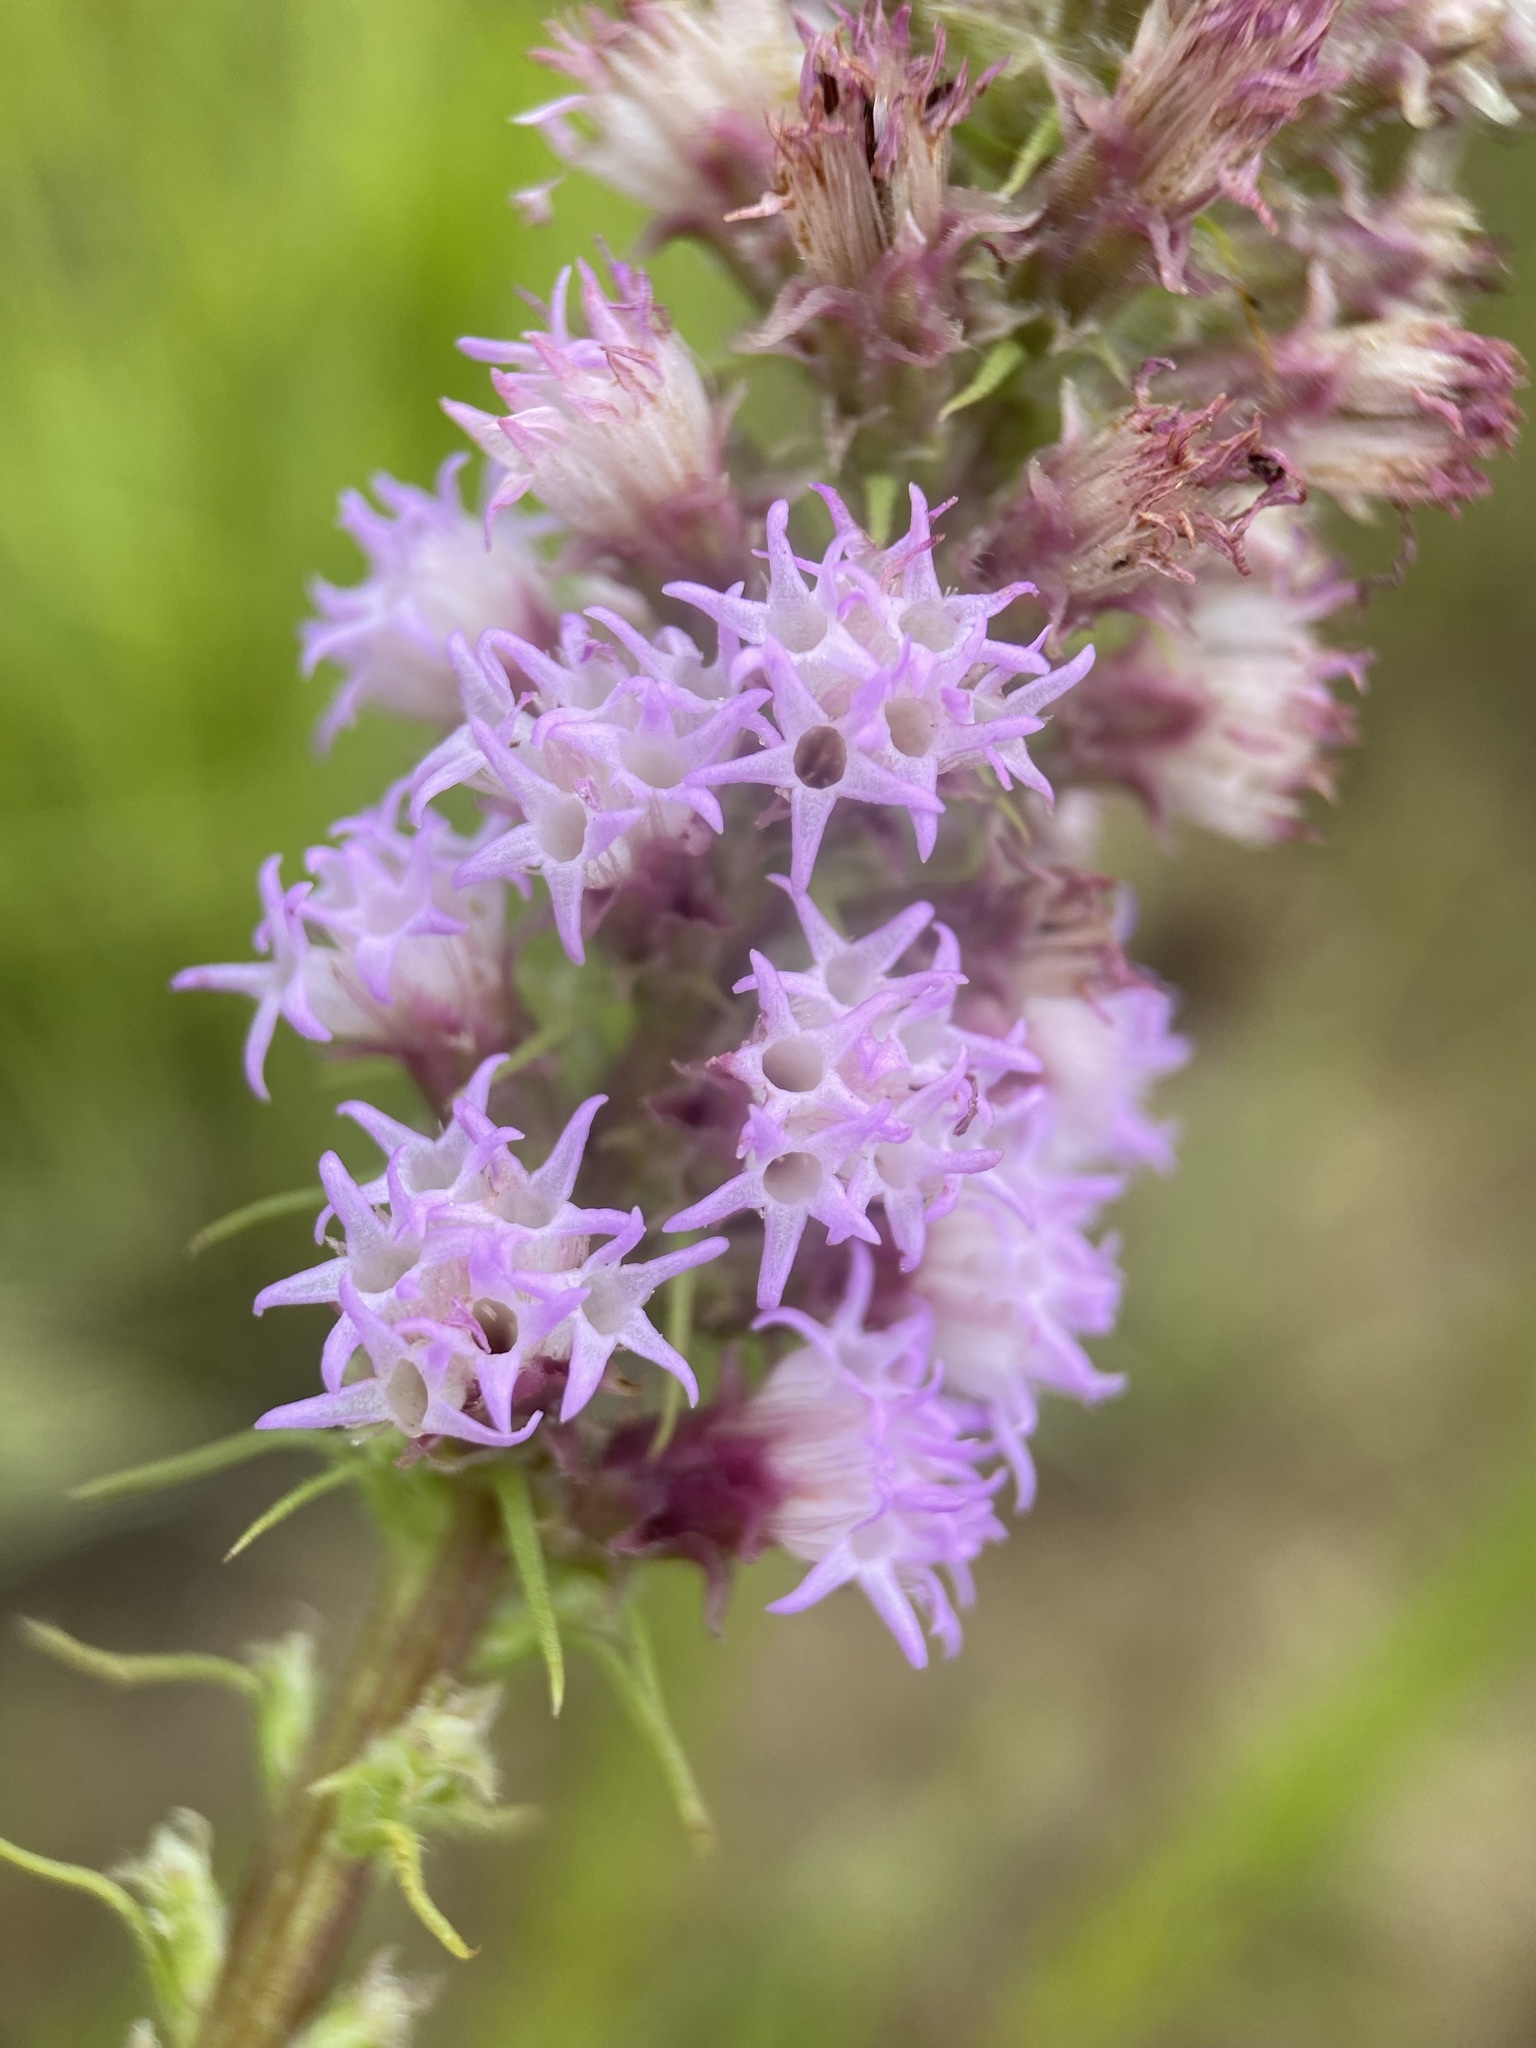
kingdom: Plantae
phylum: Tracheophyta
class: Magnoliopsida
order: Asterales
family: Asteraceae
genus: Liatris
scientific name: Liatris pycnostachya
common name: Cattail gayfeather
